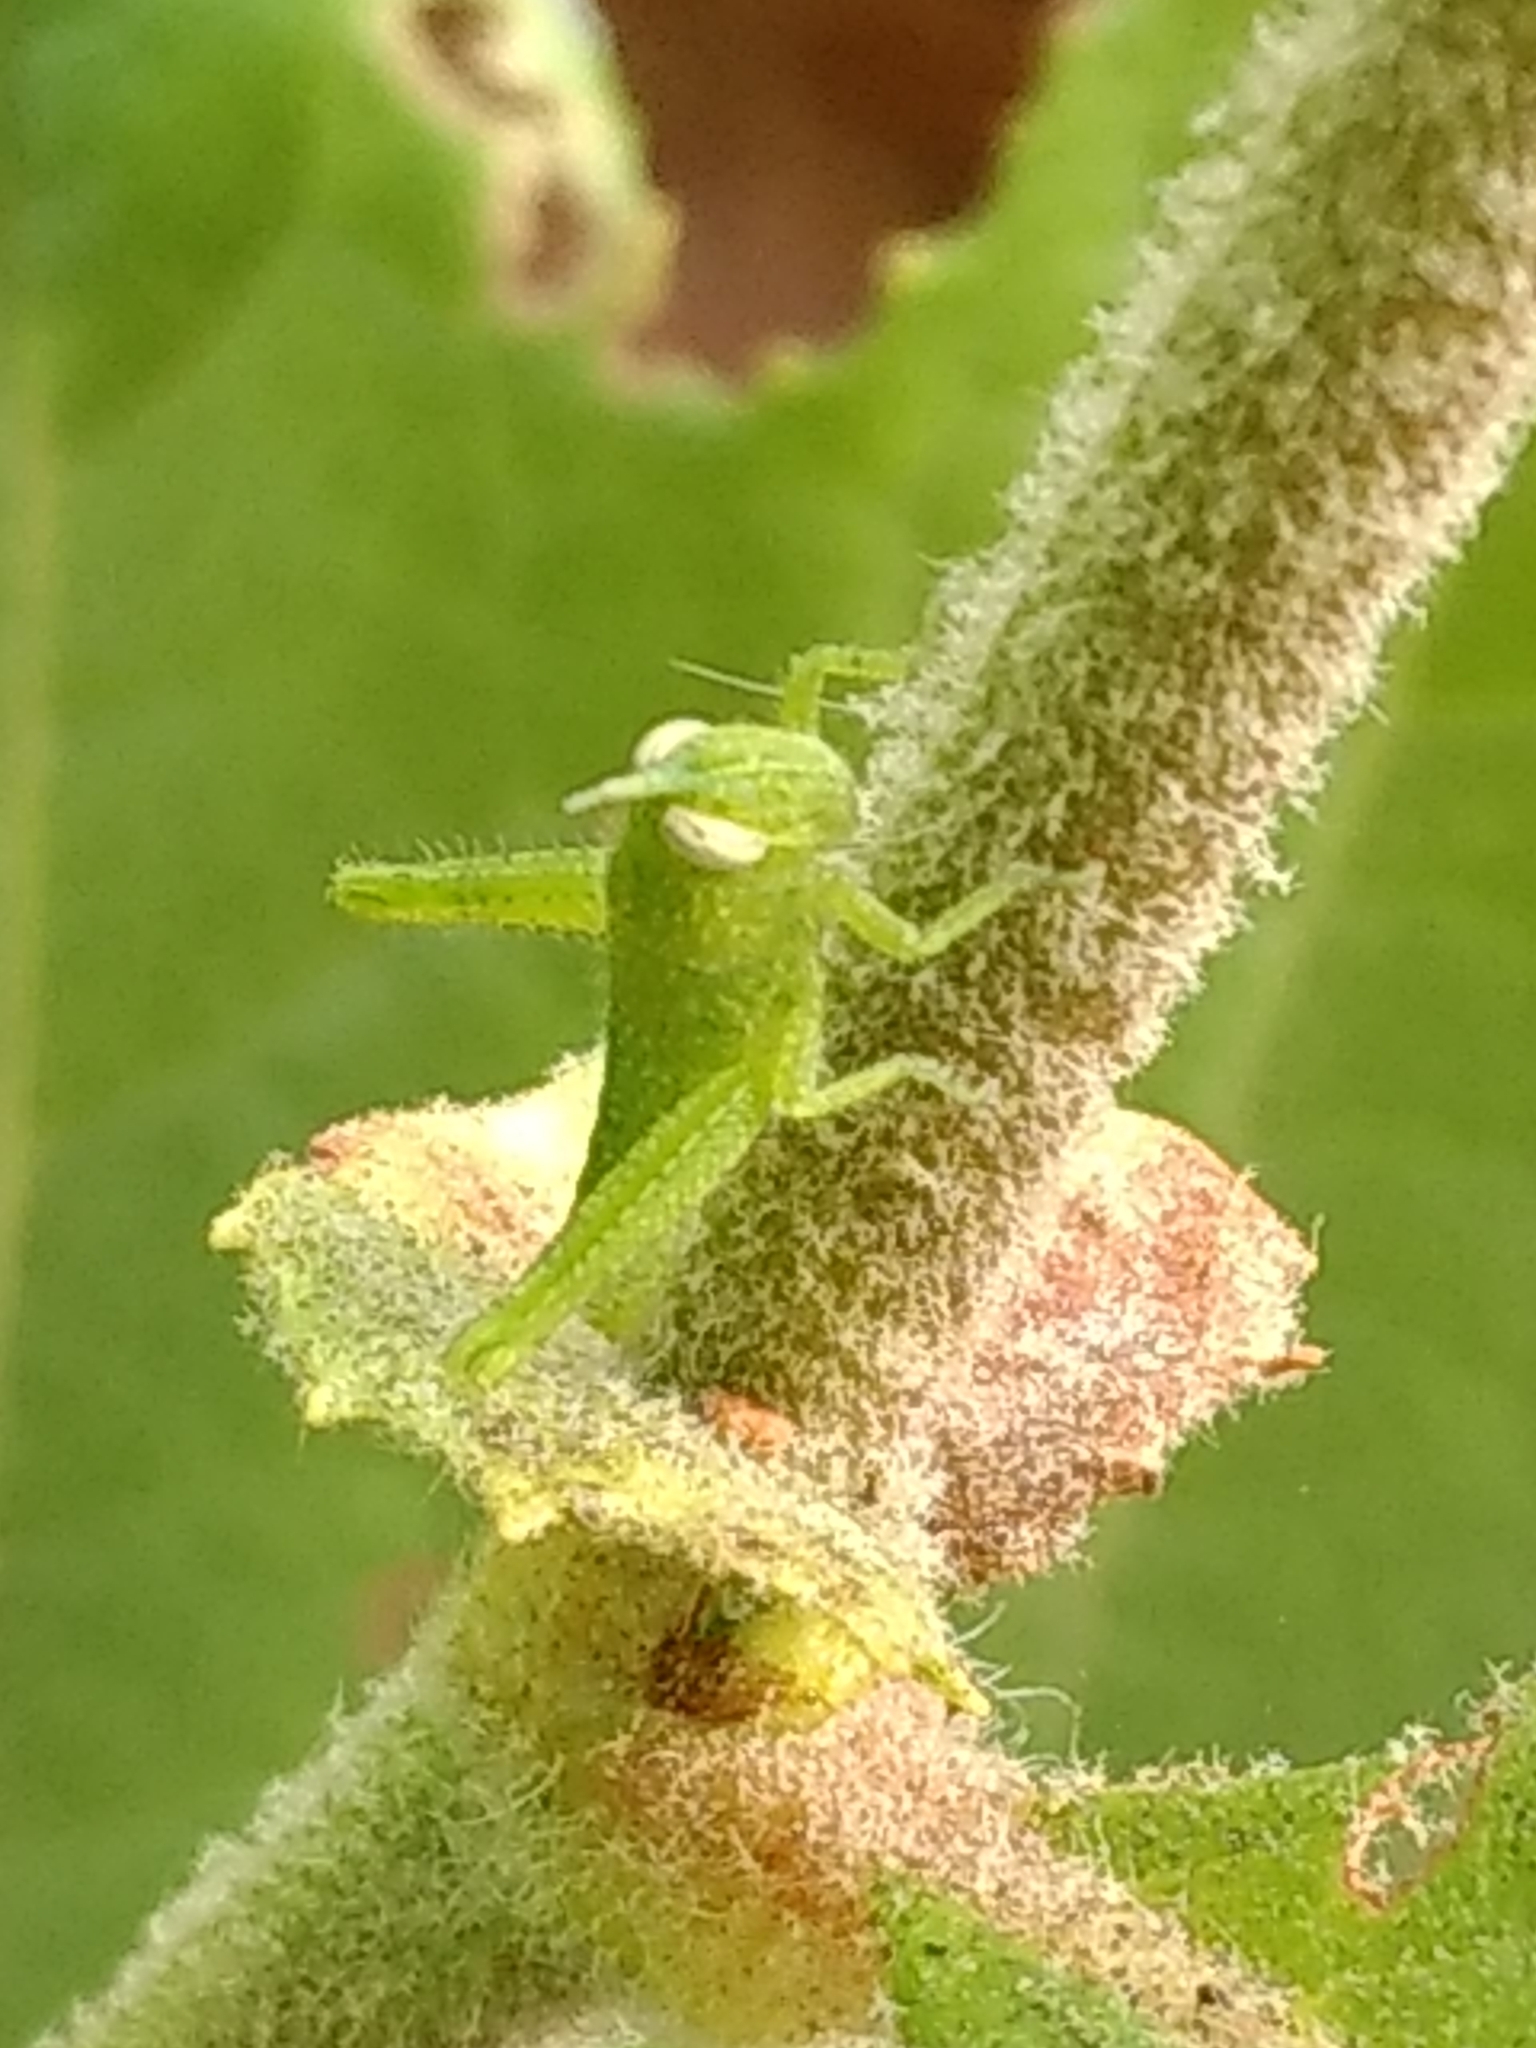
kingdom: Animalia
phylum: Arthropoda
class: Insecta
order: Orthoptera
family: Acrididae
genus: Schistocerca
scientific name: Schistocerca nitens
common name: Vagrant grasshopper
